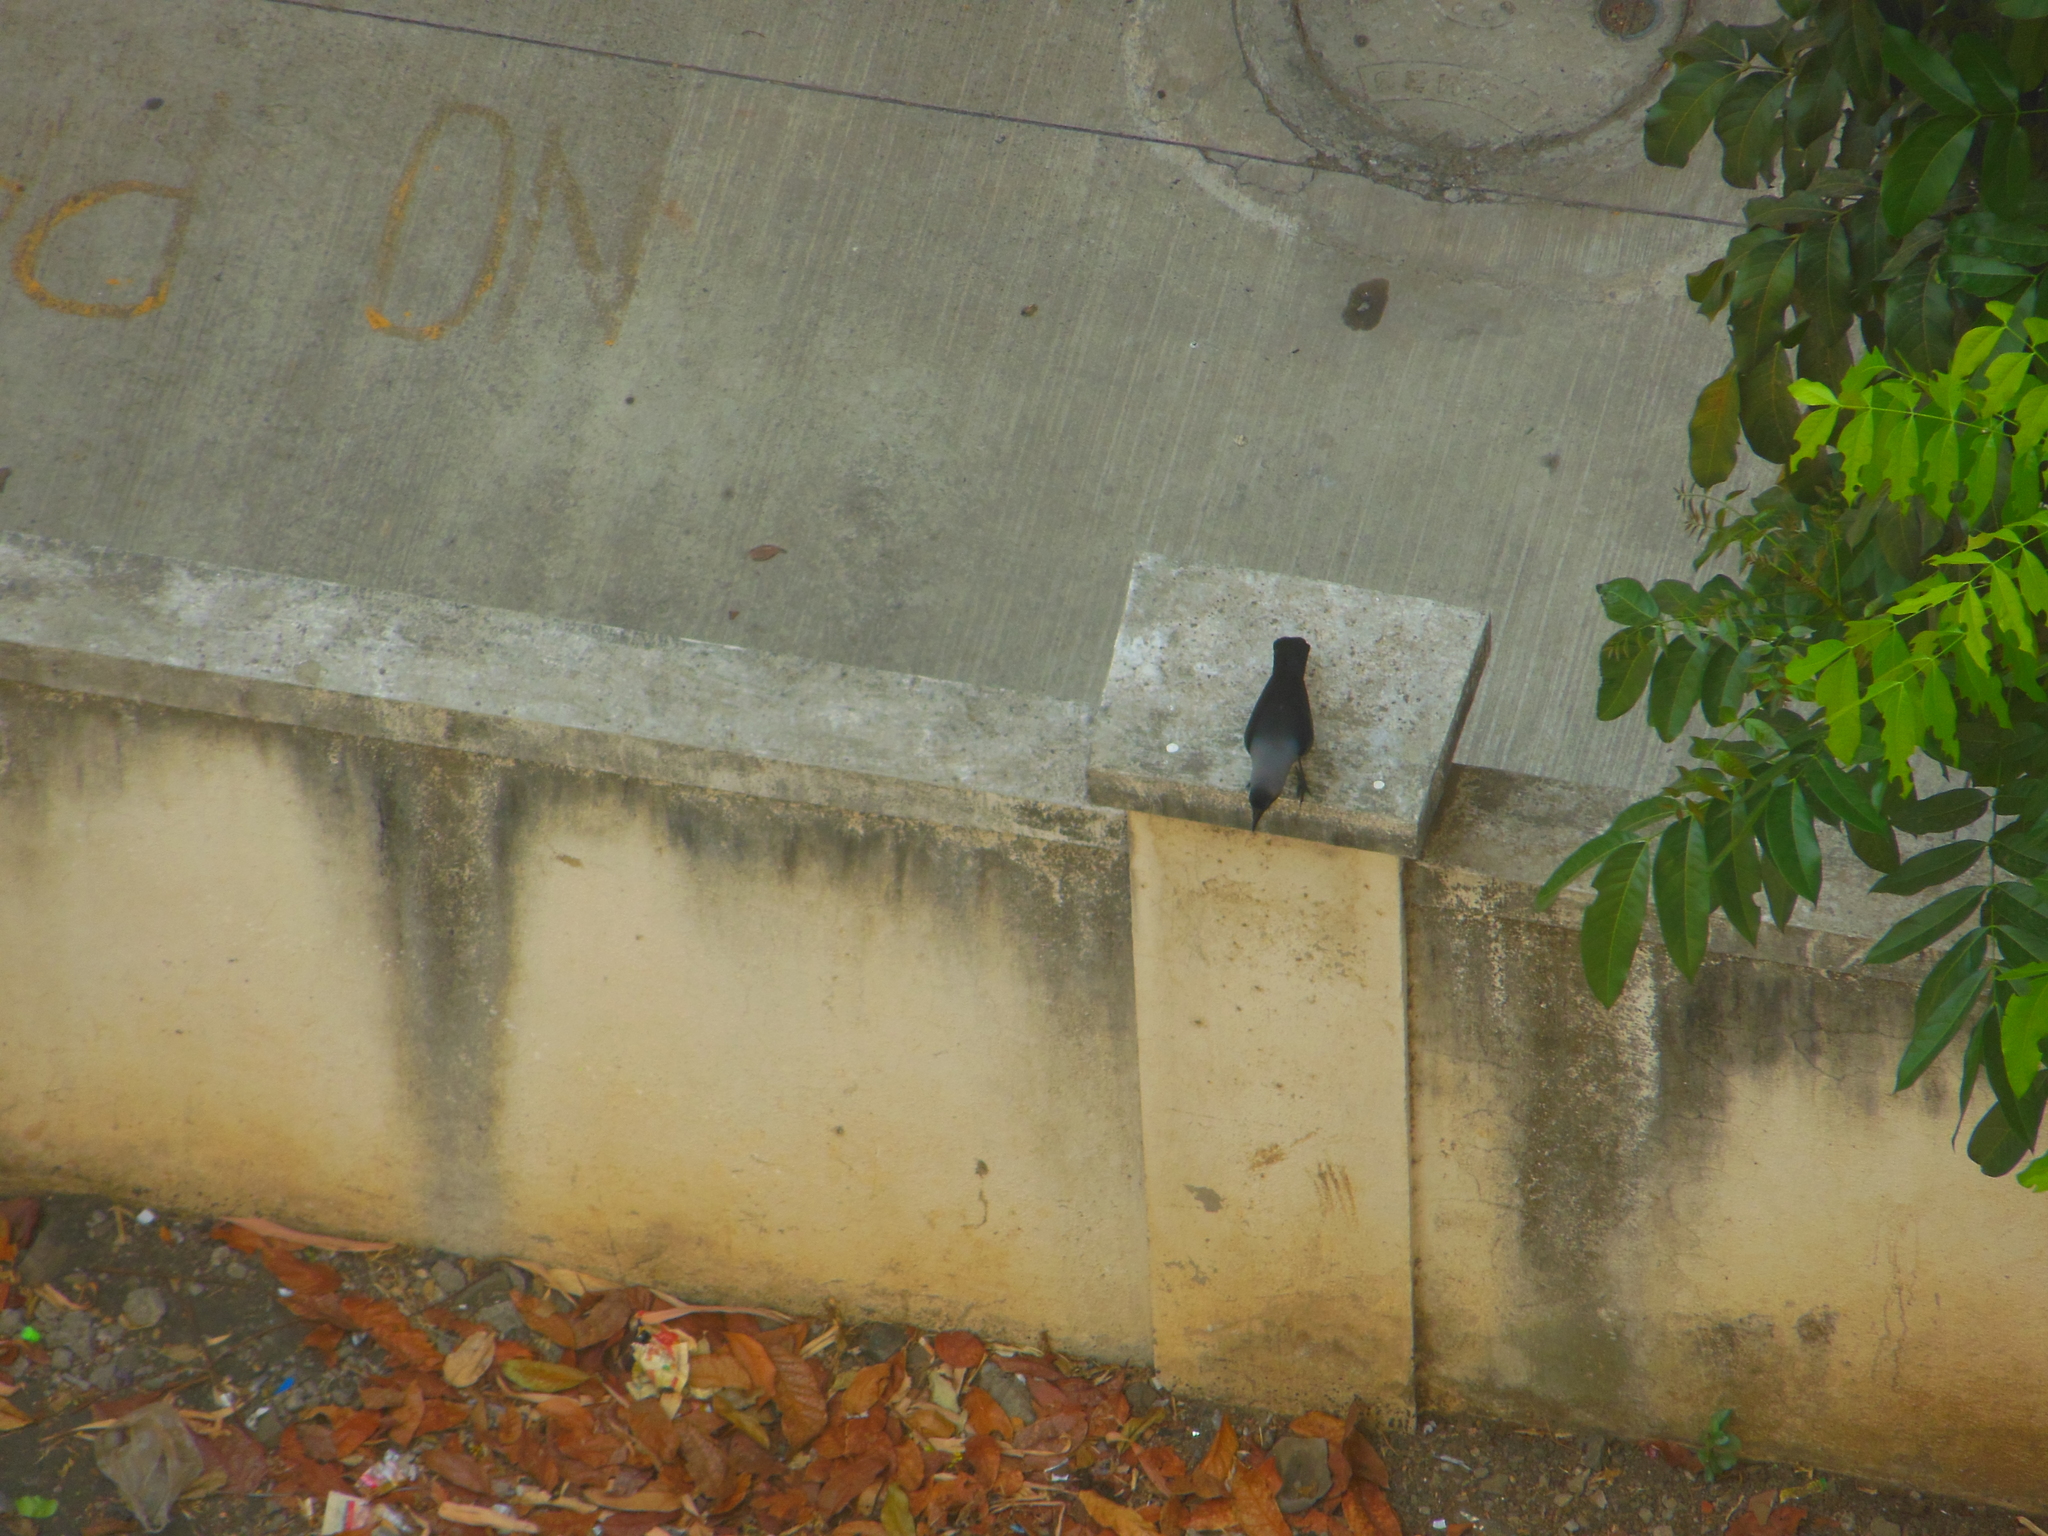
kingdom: Animalia
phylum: Chordata
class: Aves
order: Passeriformes
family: Corvidae
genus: Corvus
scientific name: Corvus splendens
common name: House crow
